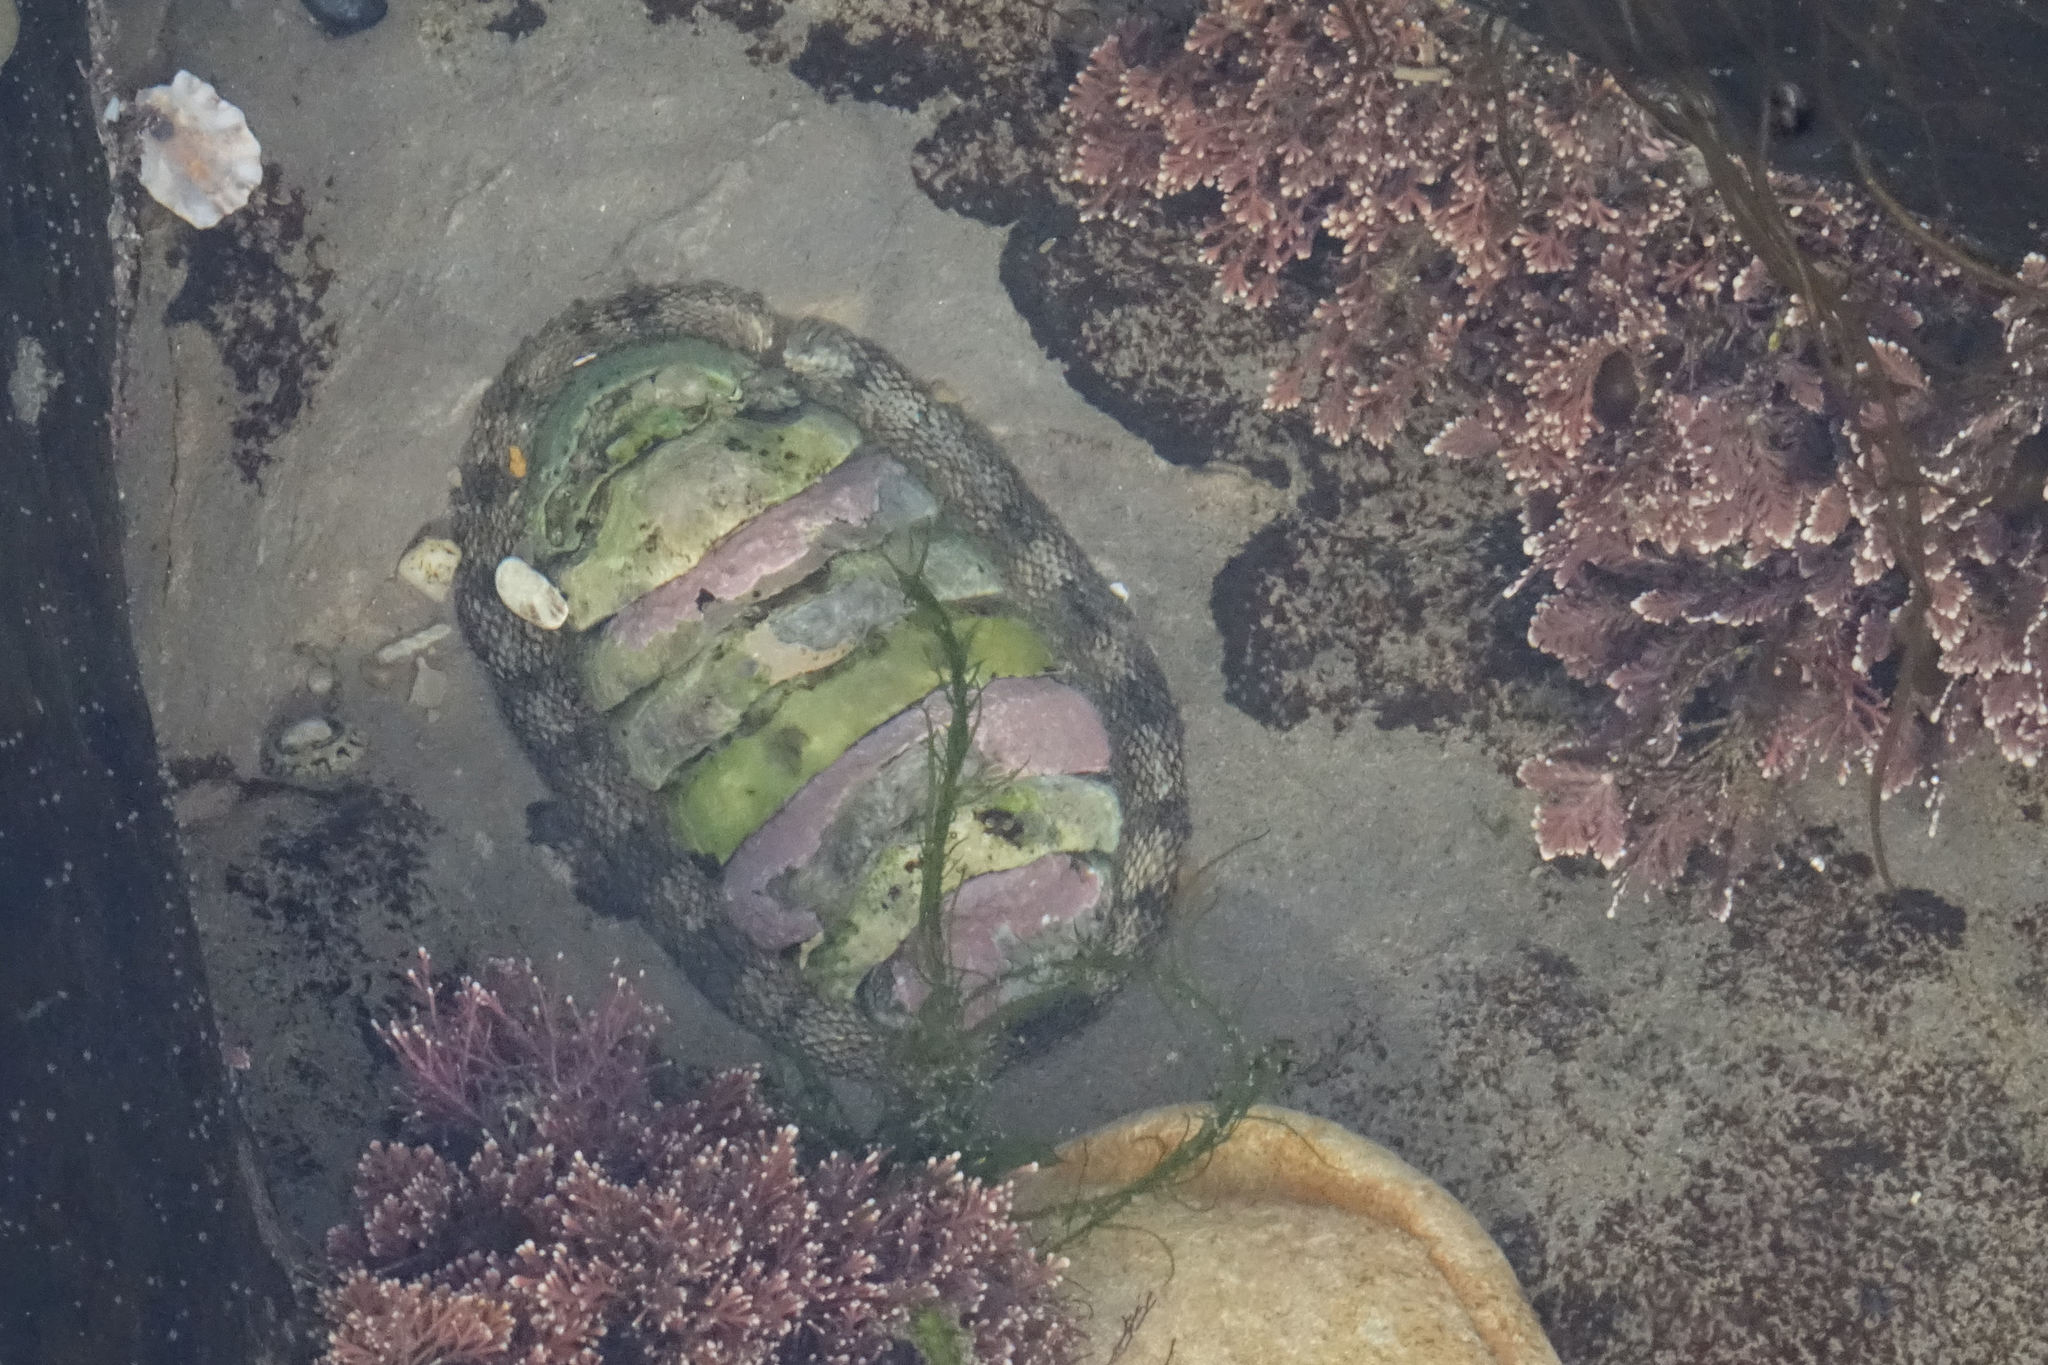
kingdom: Animalia
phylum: Mollusca
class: Polyplacophora
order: Chitonida
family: Chitonidae
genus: Sypharochiton
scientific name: Sypharochiton pelliserpentis
